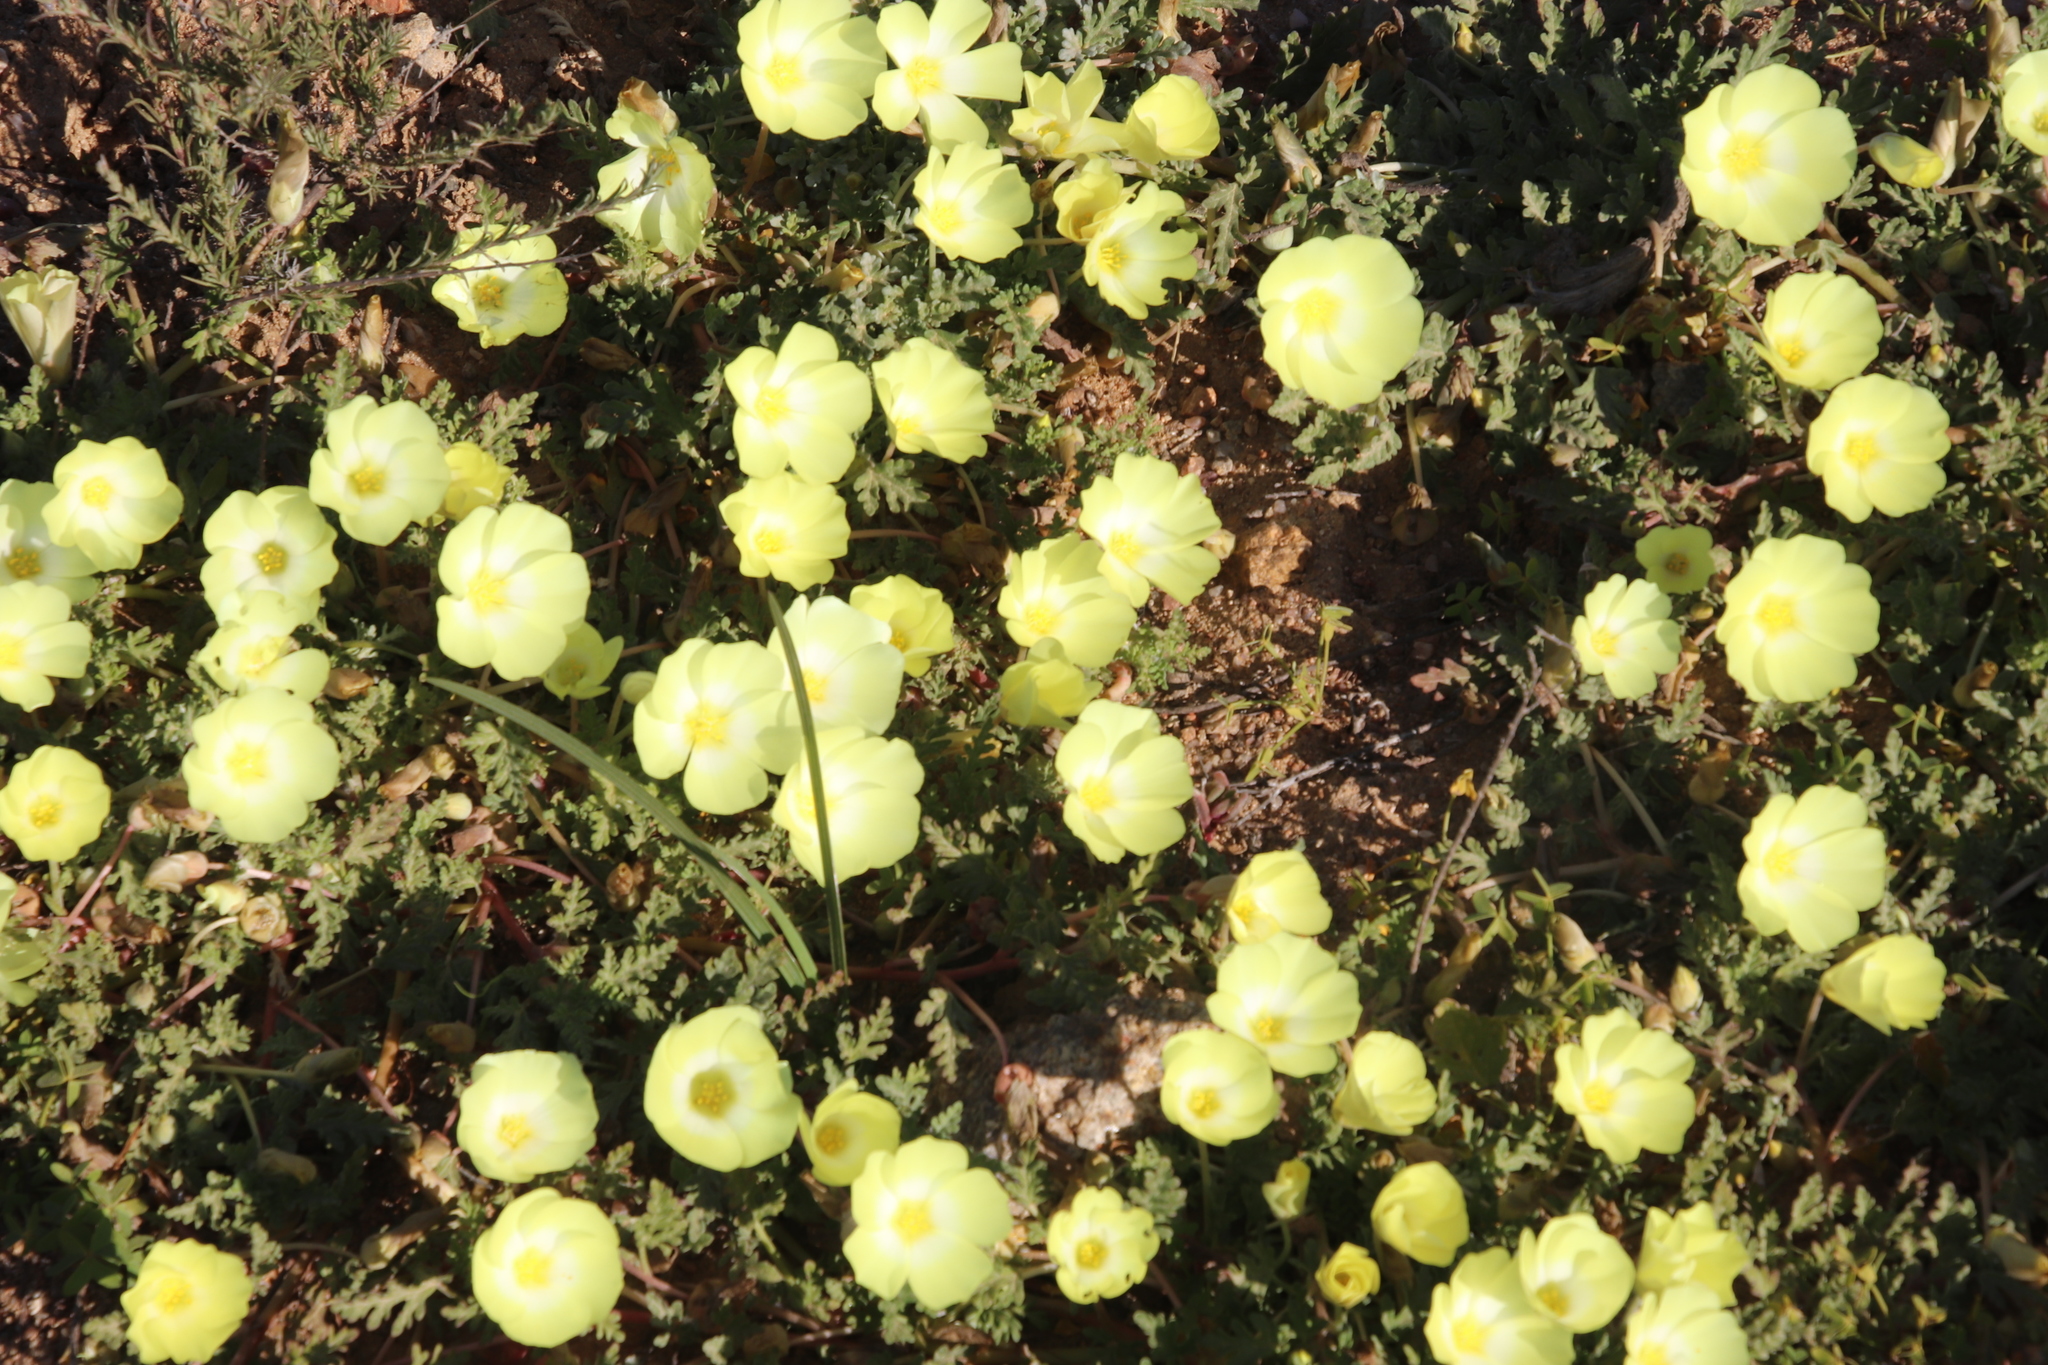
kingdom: Plantae
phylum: Tracheophyta
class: Magnoliopsida
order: Malvales
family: Neuradaceae
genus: Grielum
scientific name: Grielum humifusum
